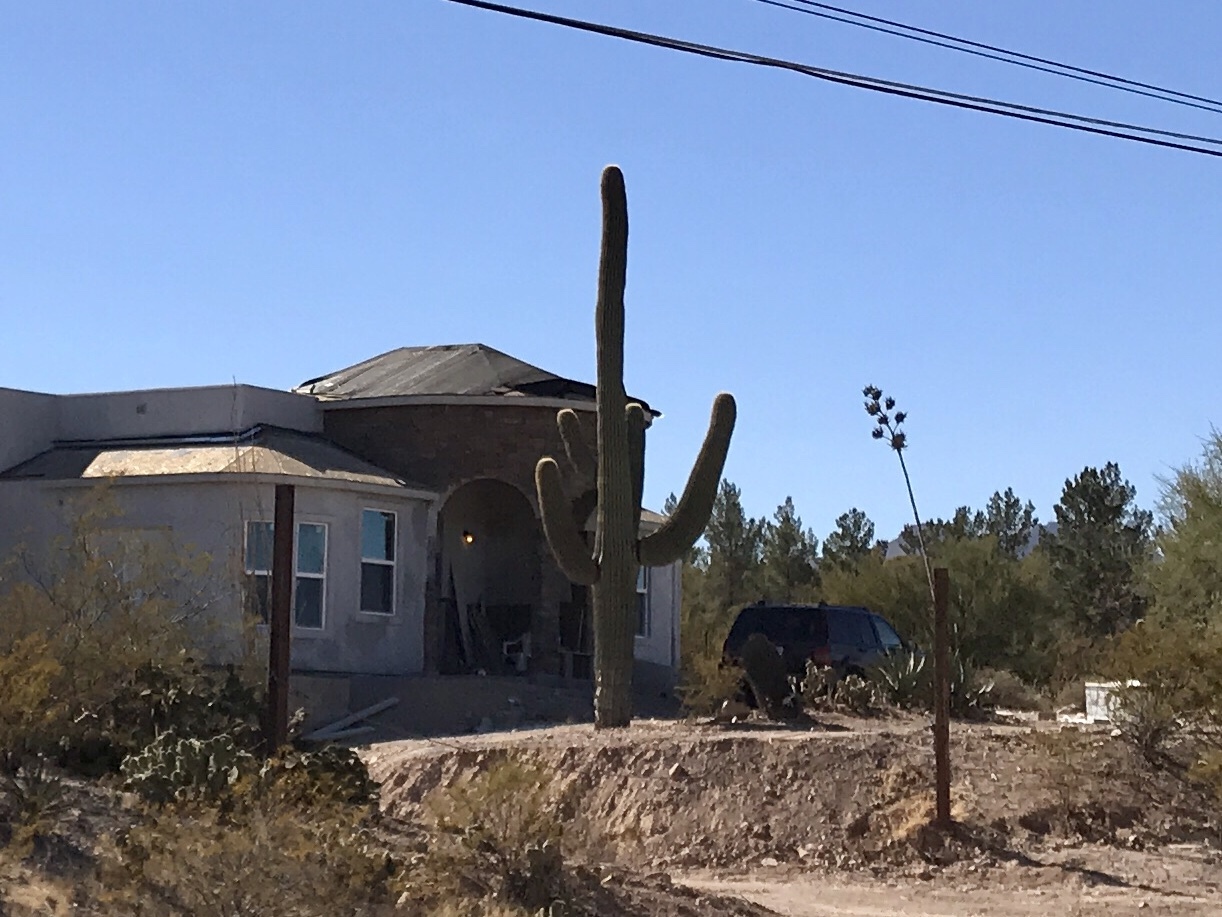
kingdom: Plantae
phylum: Tracheophyta
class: Magnoliopsida
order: Caryophyllales
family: Cactaceae
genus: Carnegiea
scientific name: Carnegiea gigantea
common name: Saguaro
